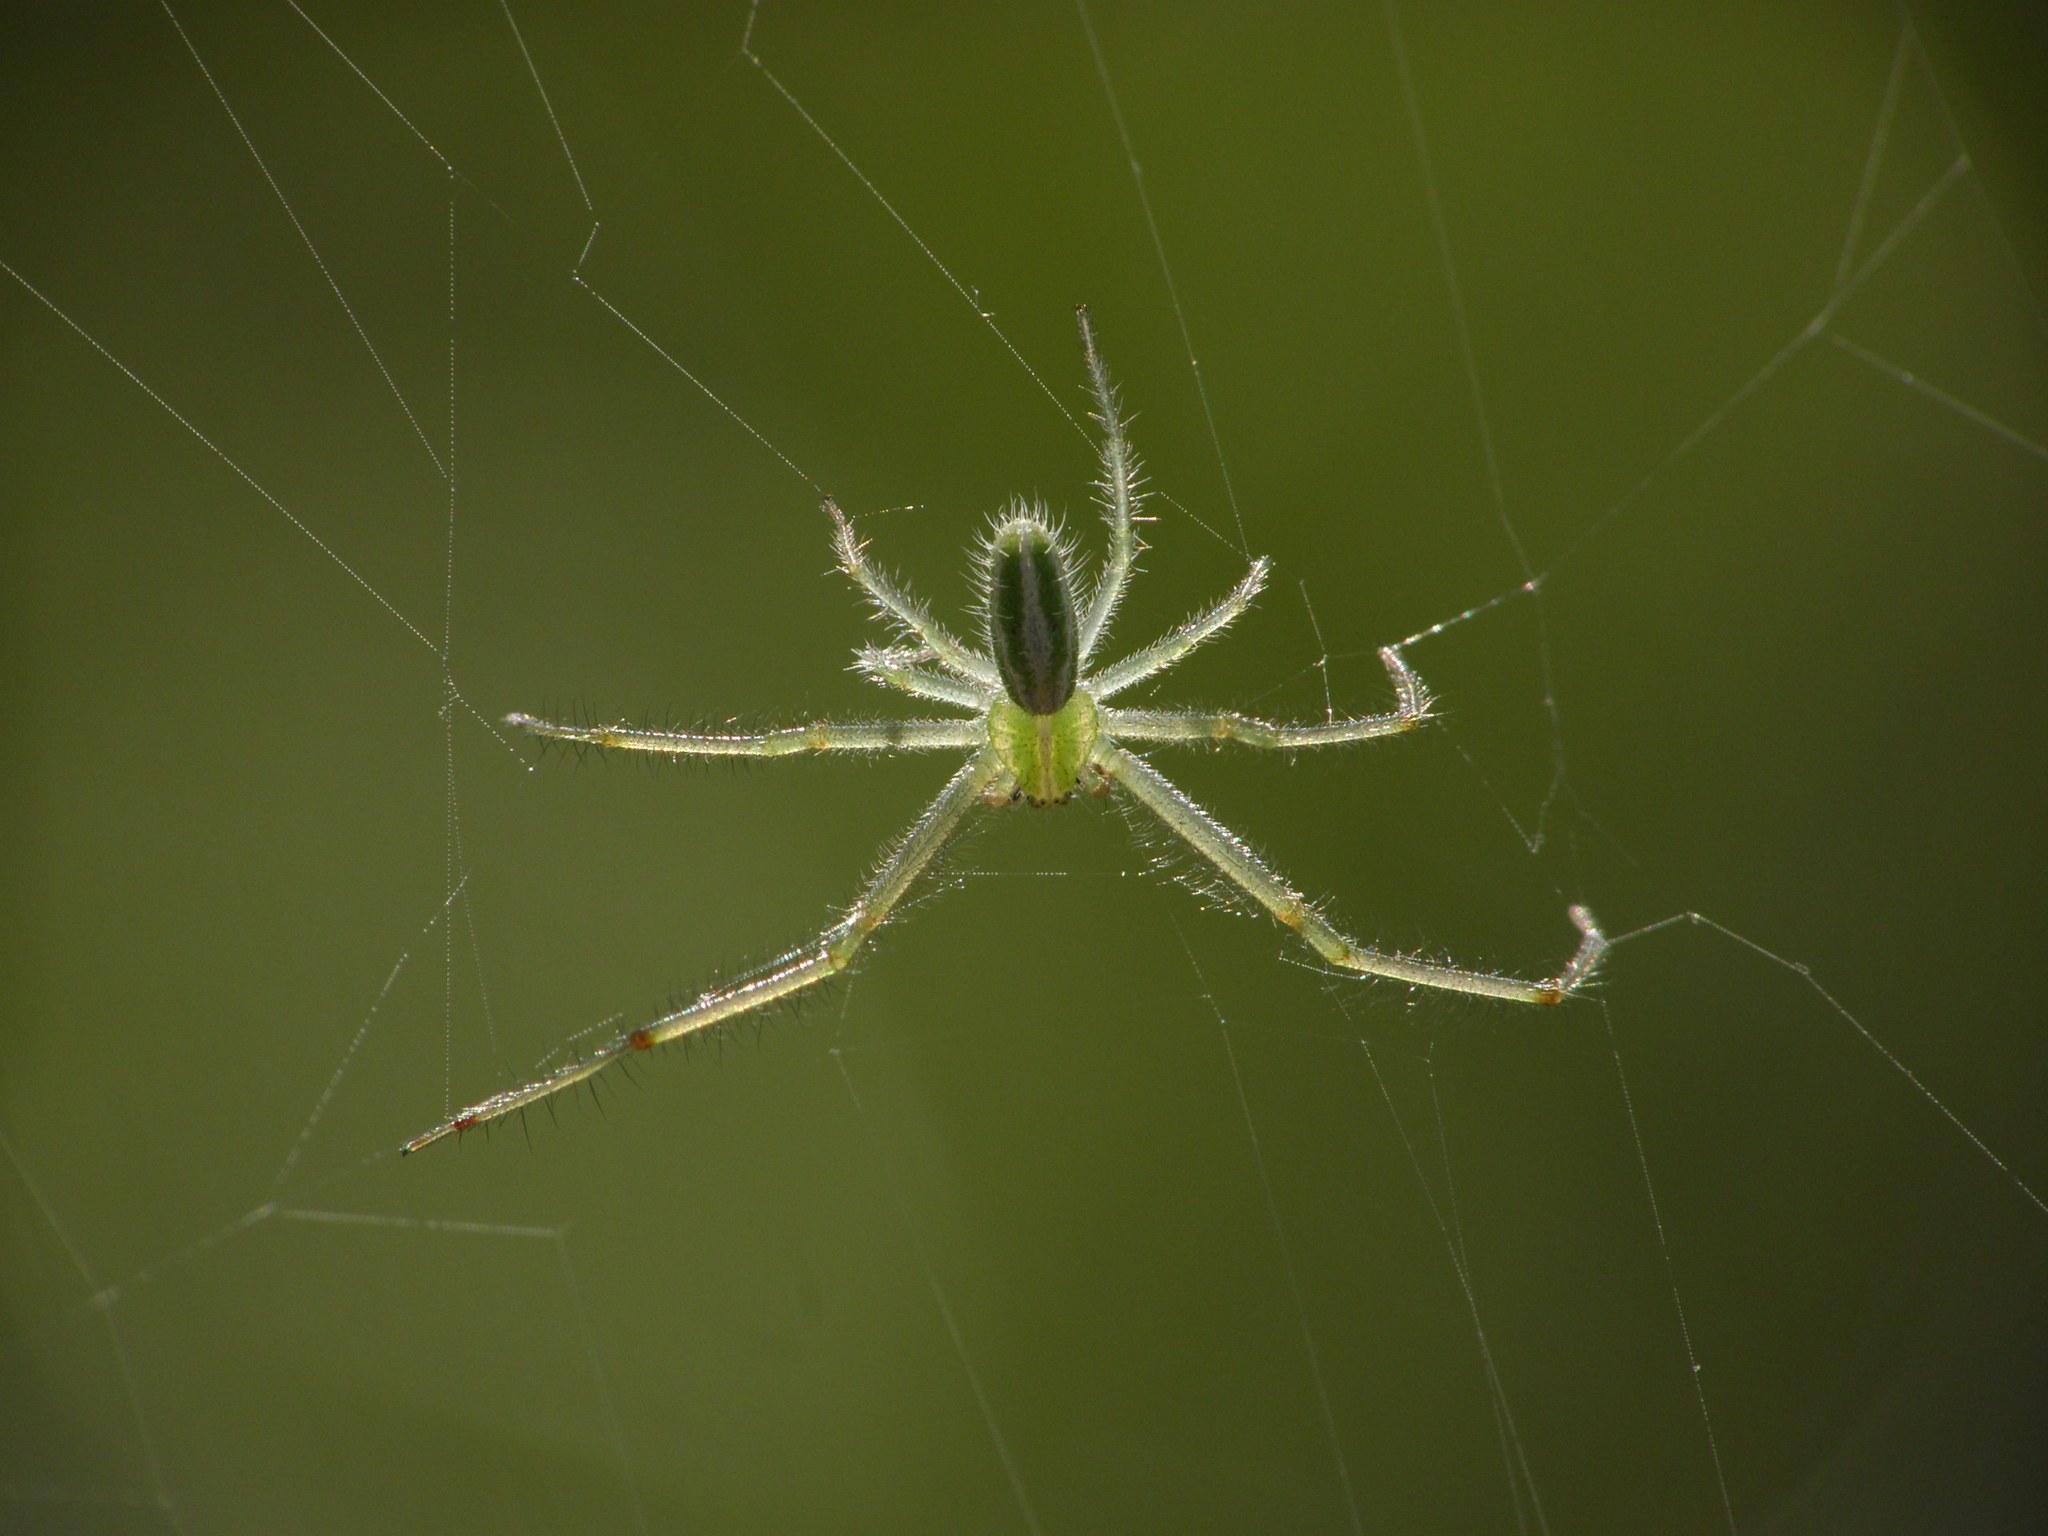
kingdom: Animalia
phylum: Arthropoda
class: Arachnida
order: Araneae
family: Thomisidae
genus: Heriaeus
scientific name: Heriaeus oblongus
